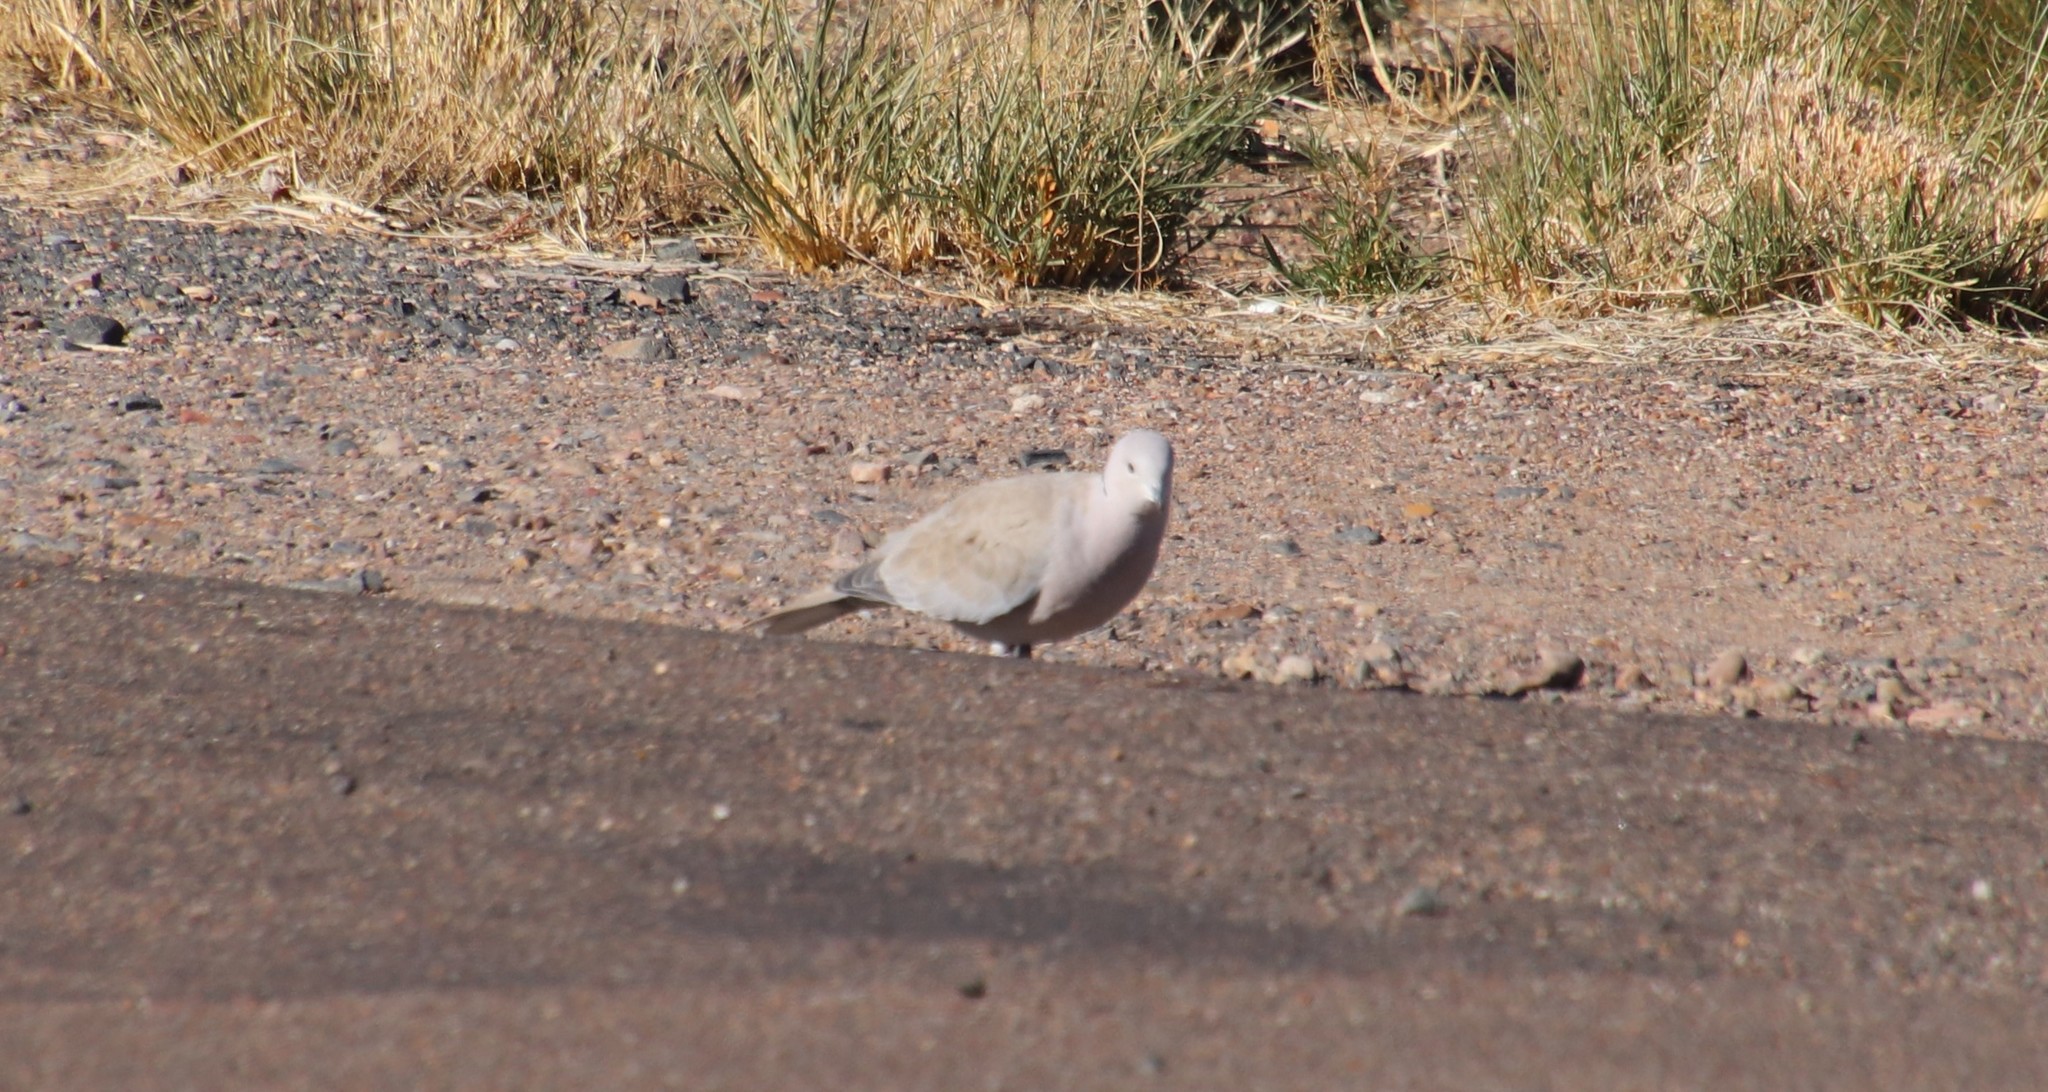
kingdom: Animalia
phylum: Chordata
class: Aves
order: Columbiformes
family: Columbidae
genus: Streptopelia
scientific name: Streptopelia decaocto
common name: Eurasian collared dove
